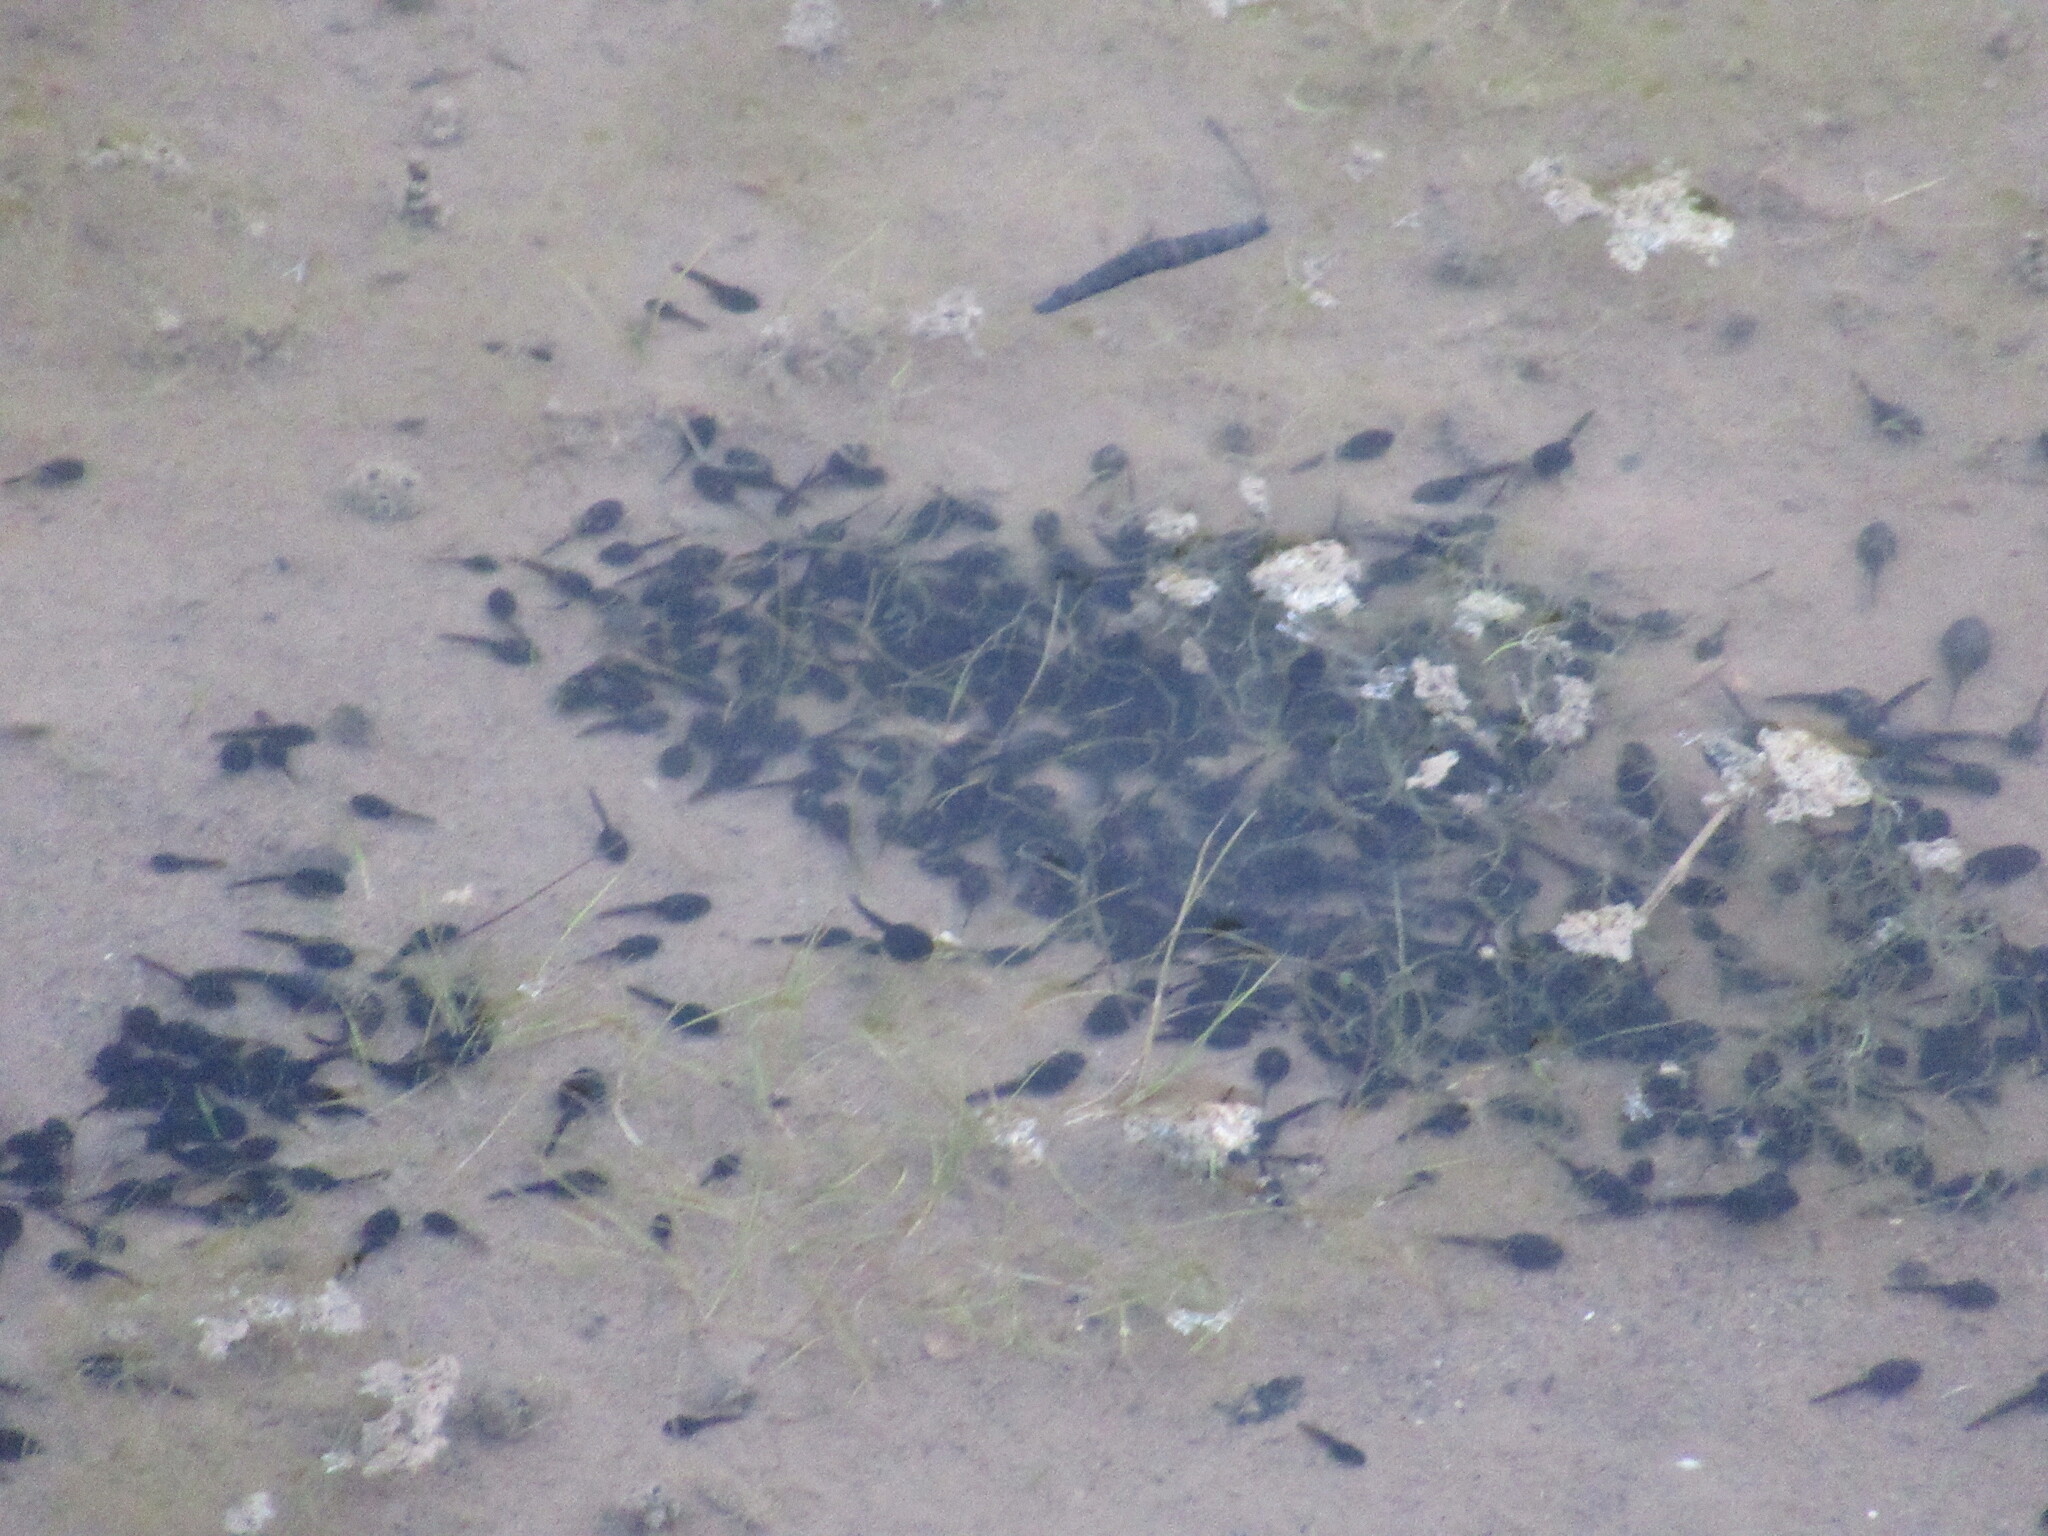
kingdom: Animalia
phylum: Chordata
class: Amphibia
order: Anura
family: Bufonidae
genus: Anaxyrus
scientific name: Anaxyrus boreas
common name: Western toad
